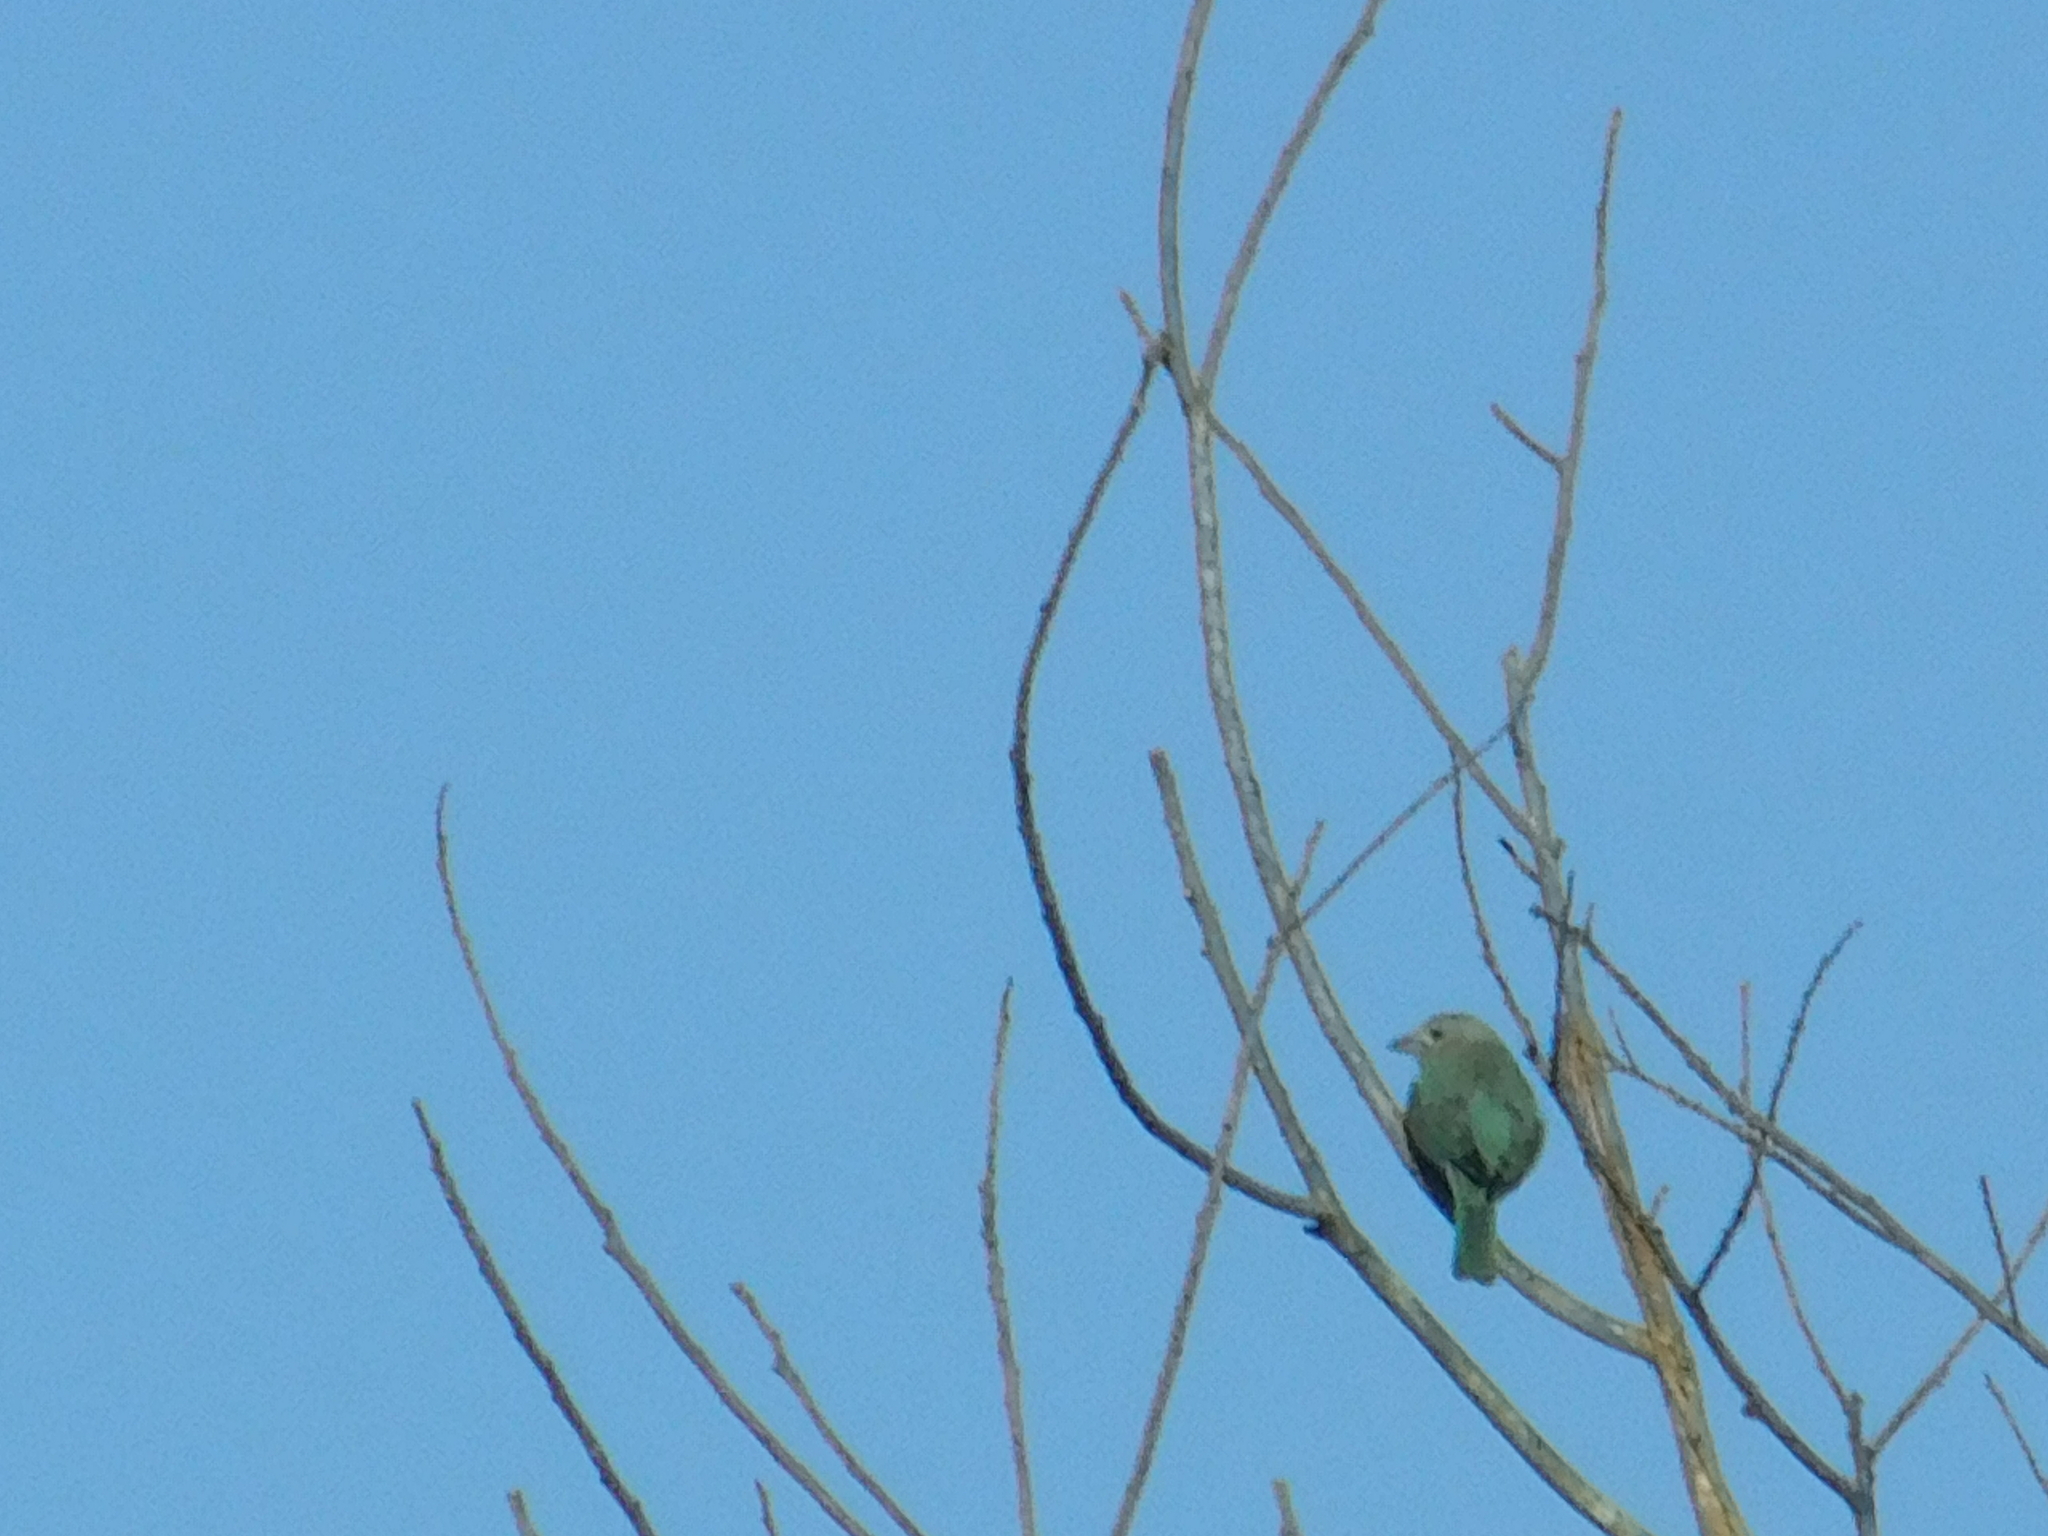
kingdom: Animalia
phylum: Chordata
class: Aves
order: Passeriformes
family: Thraupidae
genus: Thraupis
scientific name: Thraupis sayaca
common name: Sayaca tanager
